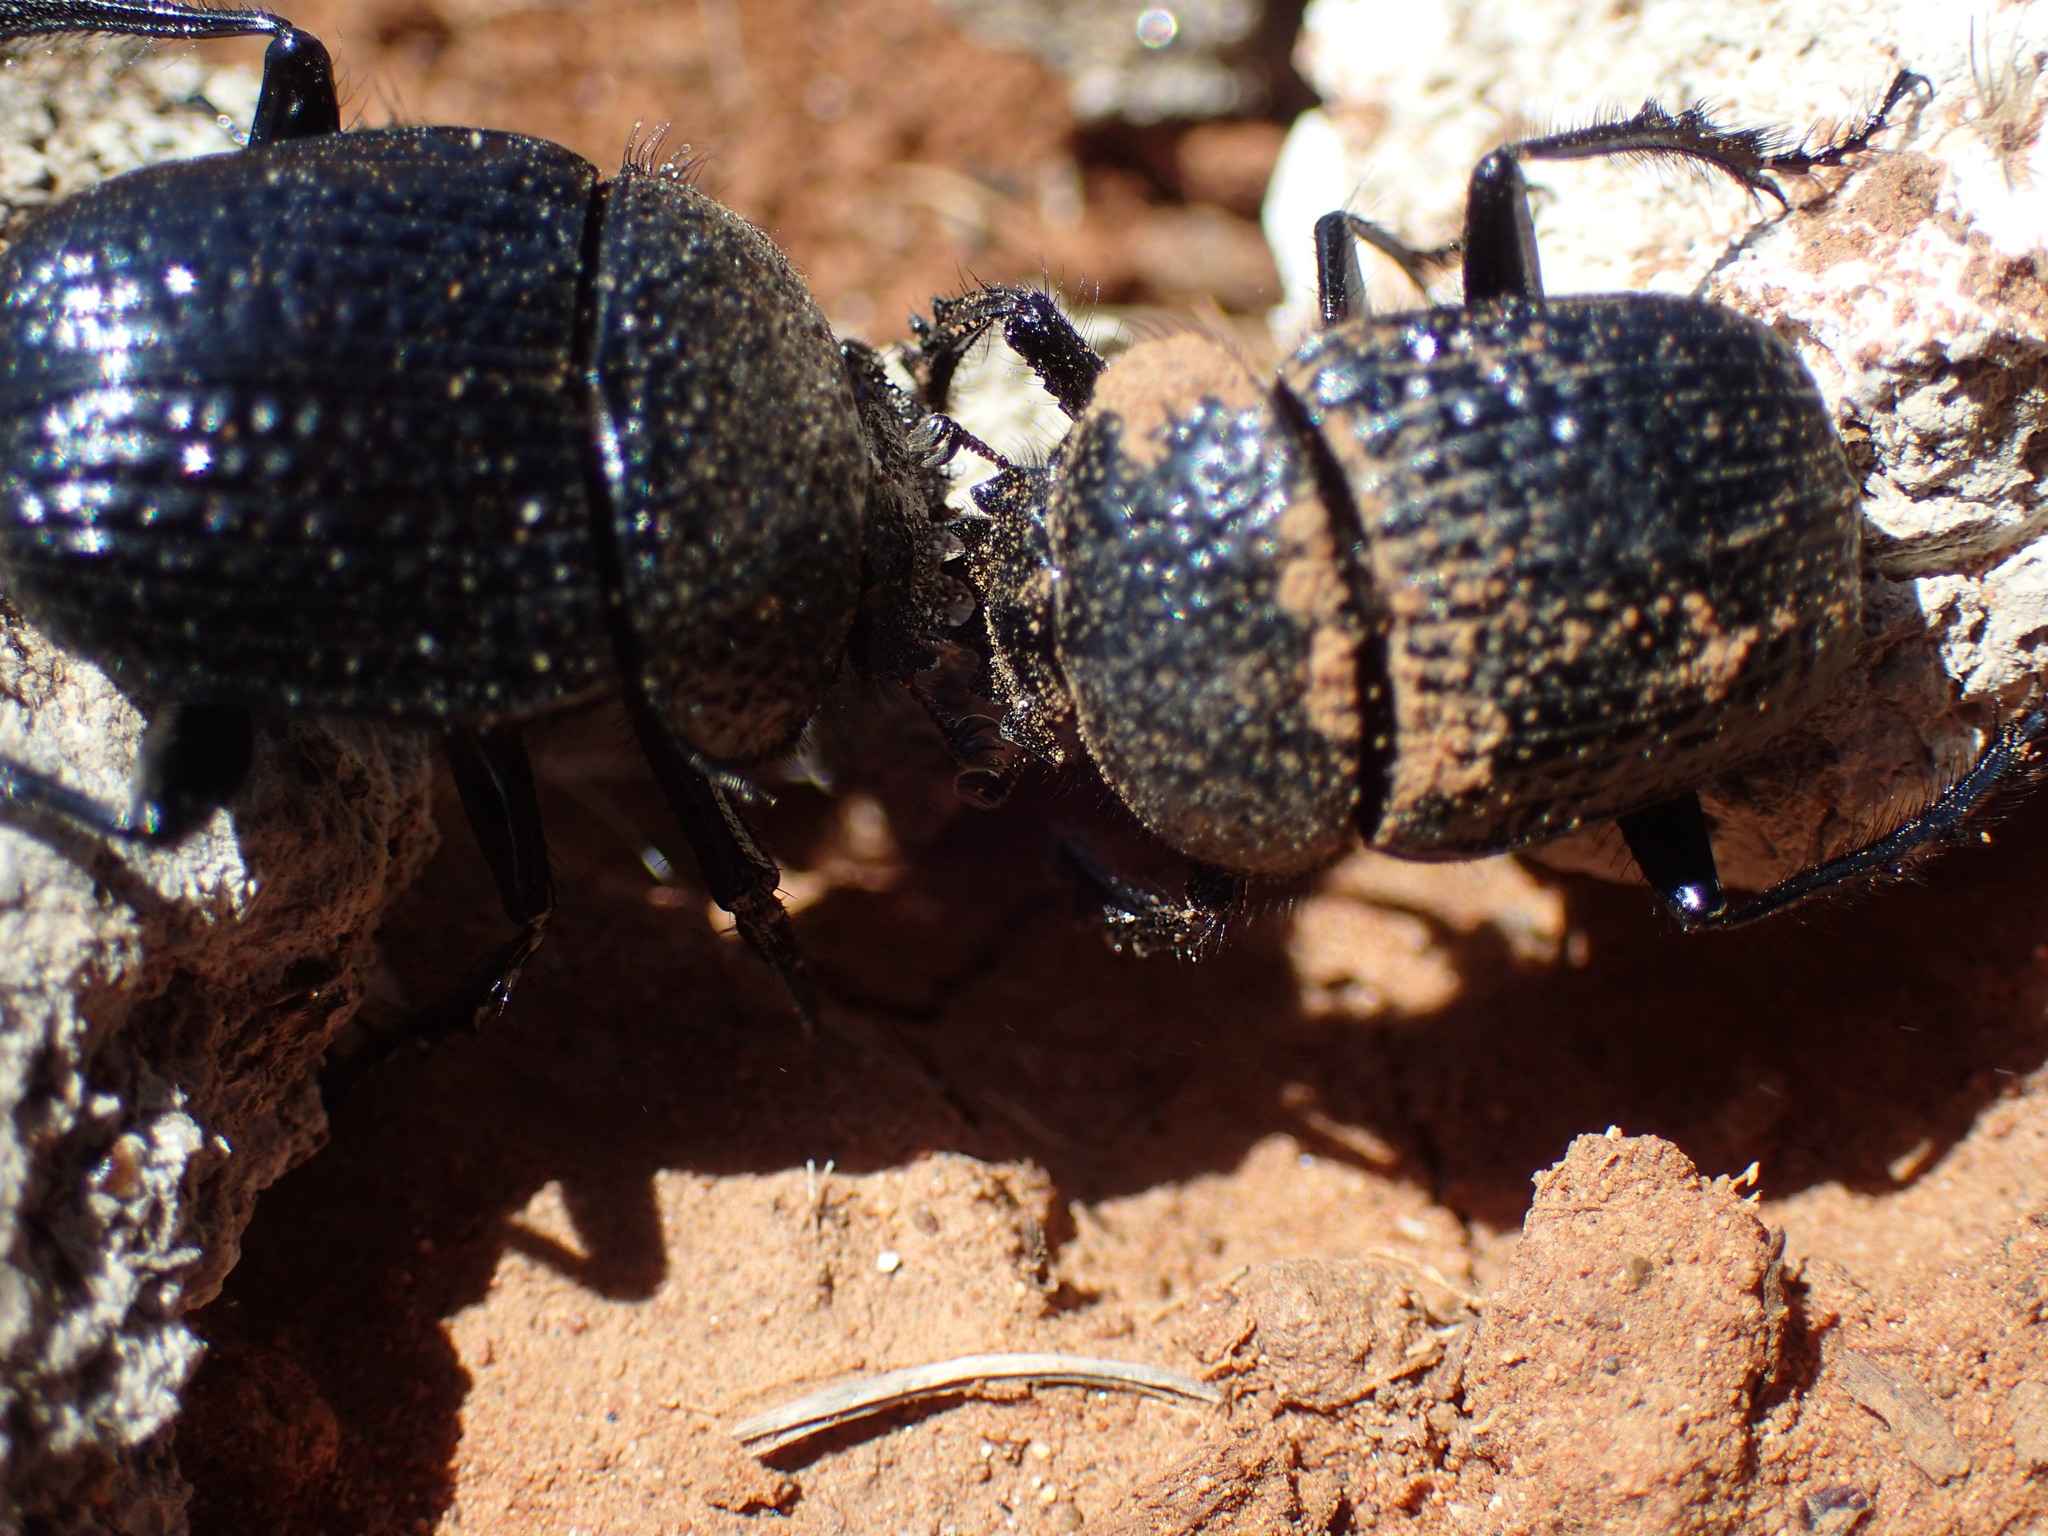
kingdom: Animalia
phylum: Arthropoda
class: Insecta
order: Coleoptera
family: Scarabaeidae
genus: Scarabaeolus
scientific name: Scarabaeolus karrooensis
